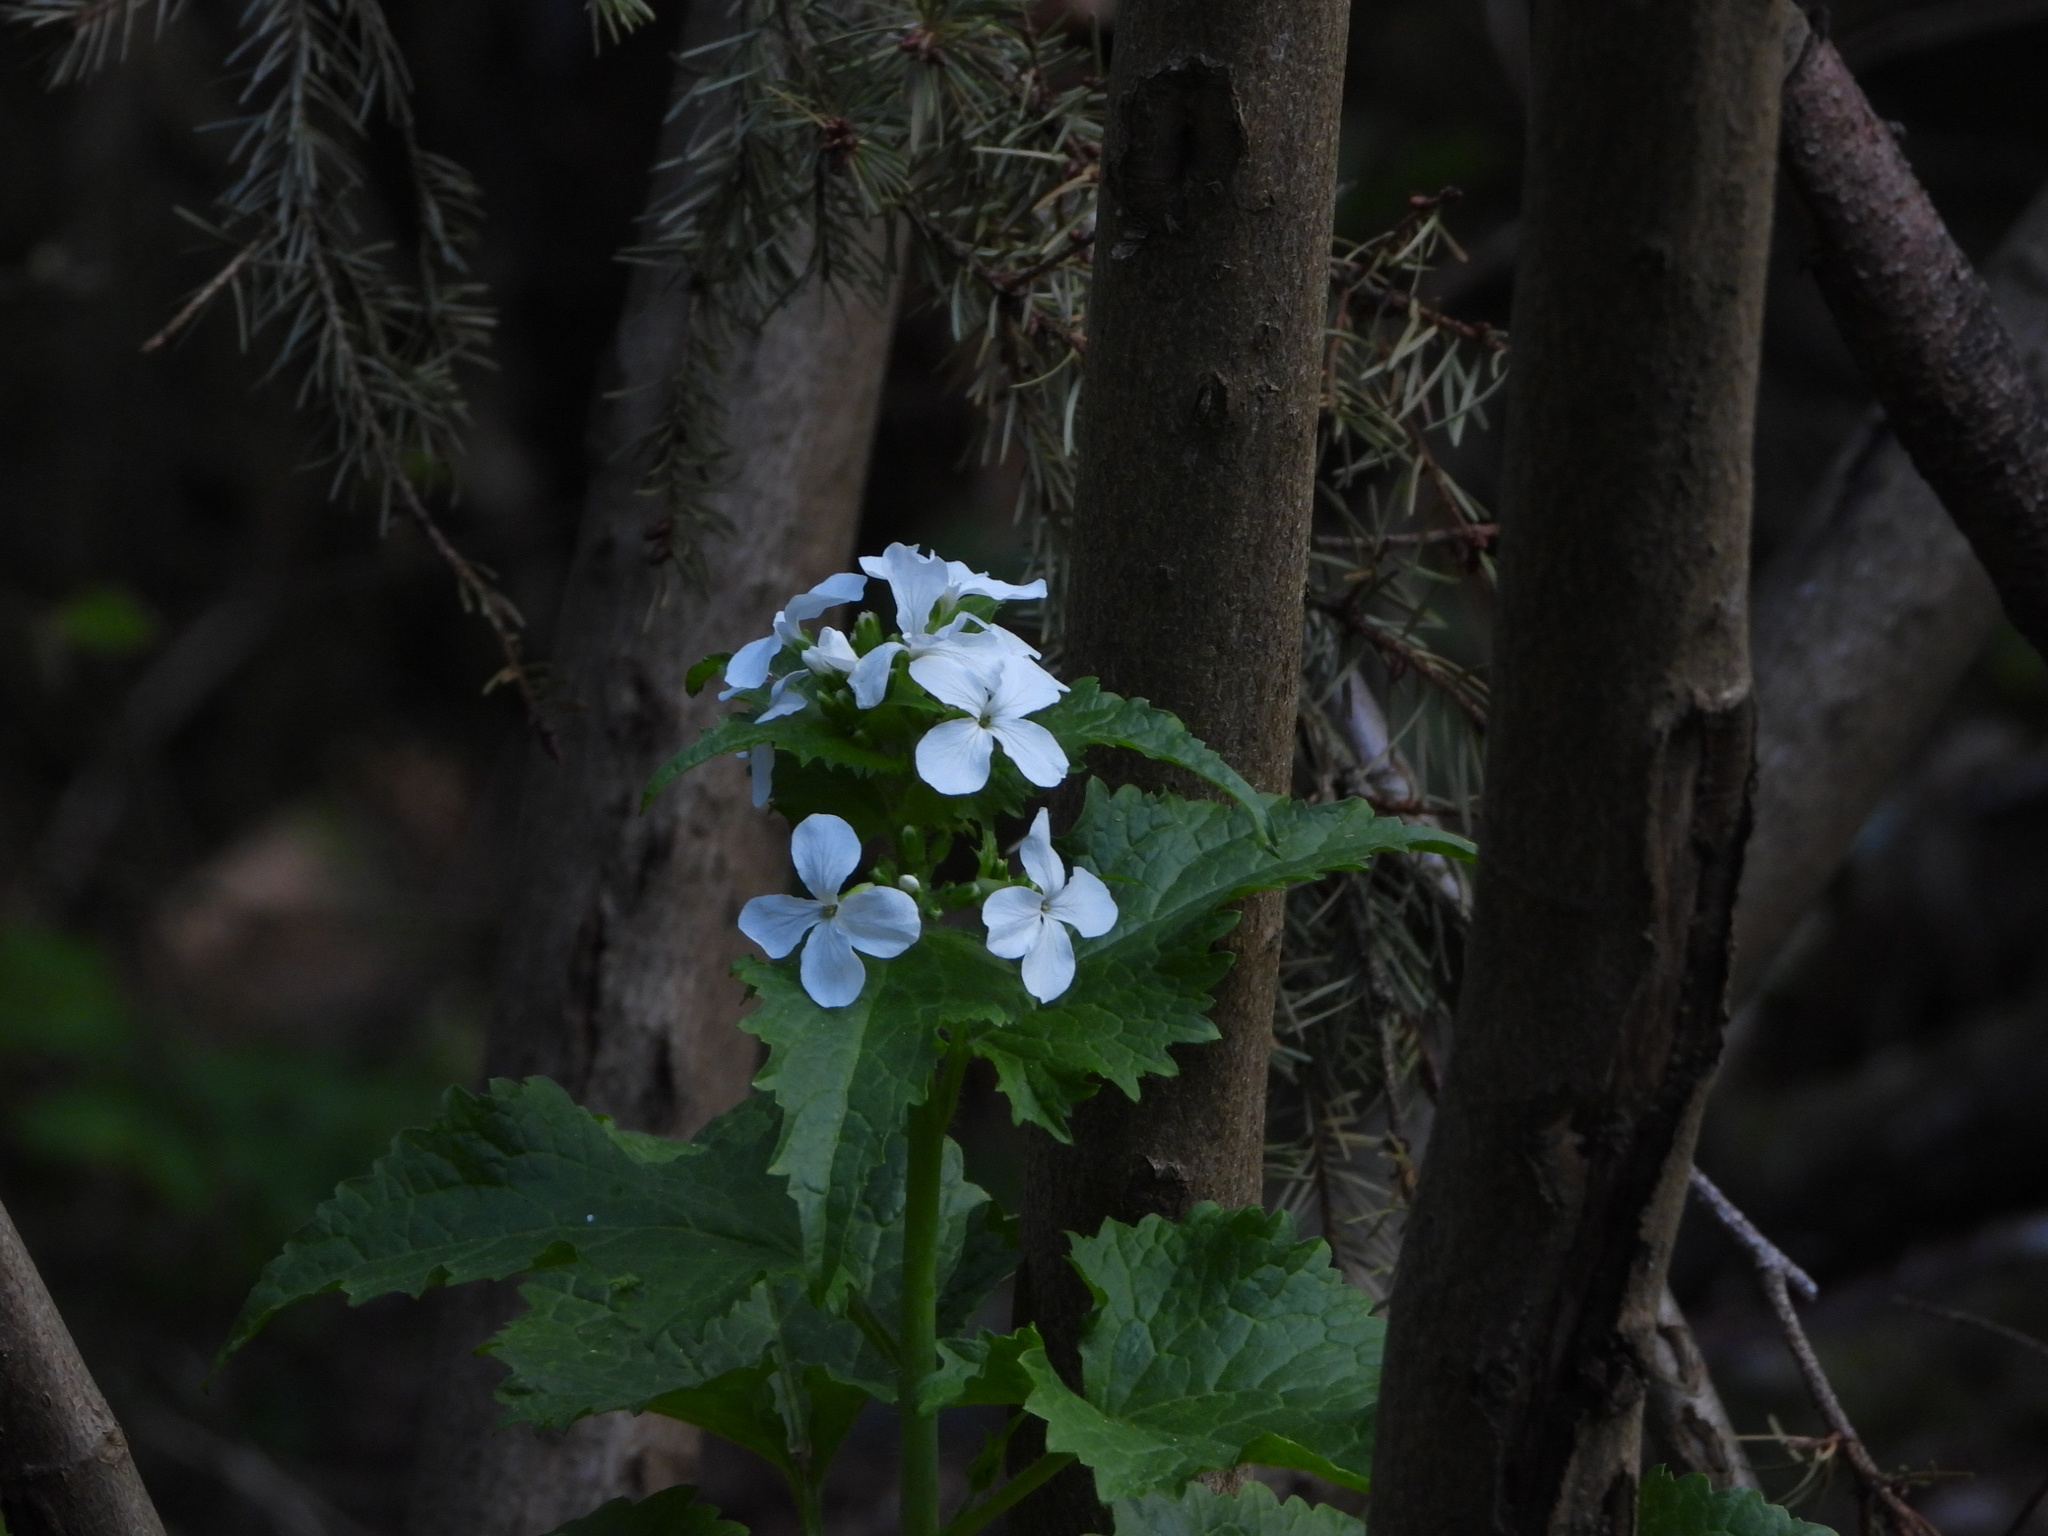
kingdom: Plantae
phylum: Tracheophyta
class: Magnoliopsida
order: Brassicales
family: Brassicaceae
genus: Lunaria
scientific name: Lunaria annua
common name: Honesty
